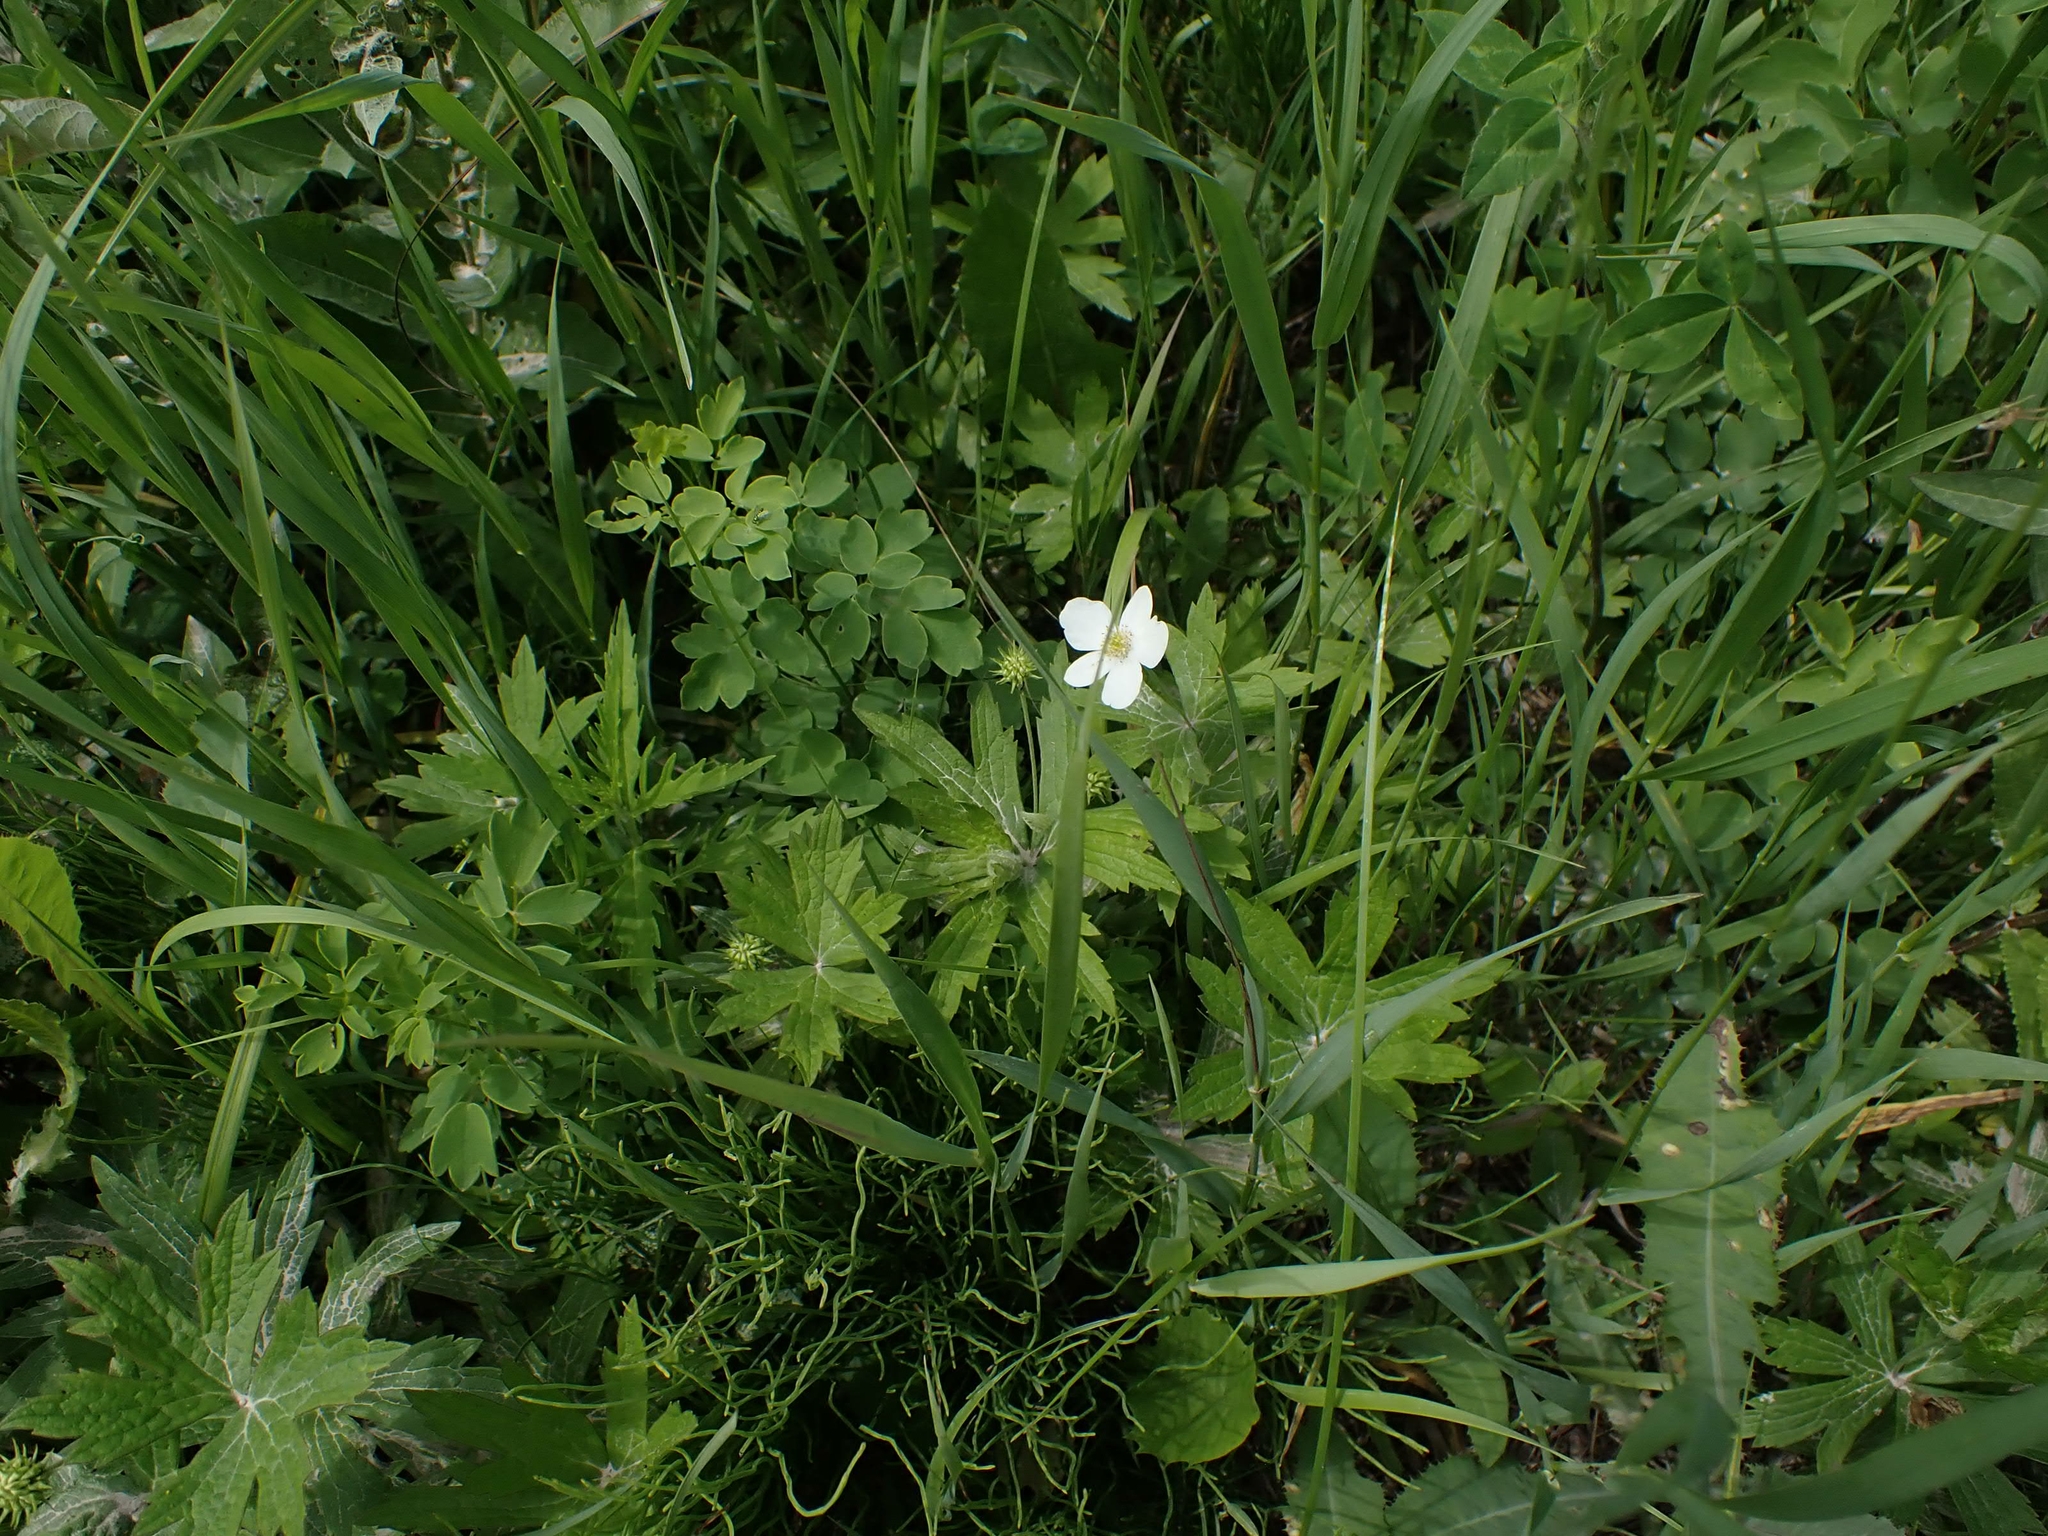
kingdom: Plantae
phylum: Tracheophyta
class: Magnoliopsida
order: Ranunculales
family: Ranunculaceae
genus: Anemonastrum
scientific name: Anemonastrum canadense
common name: Canada anemone
